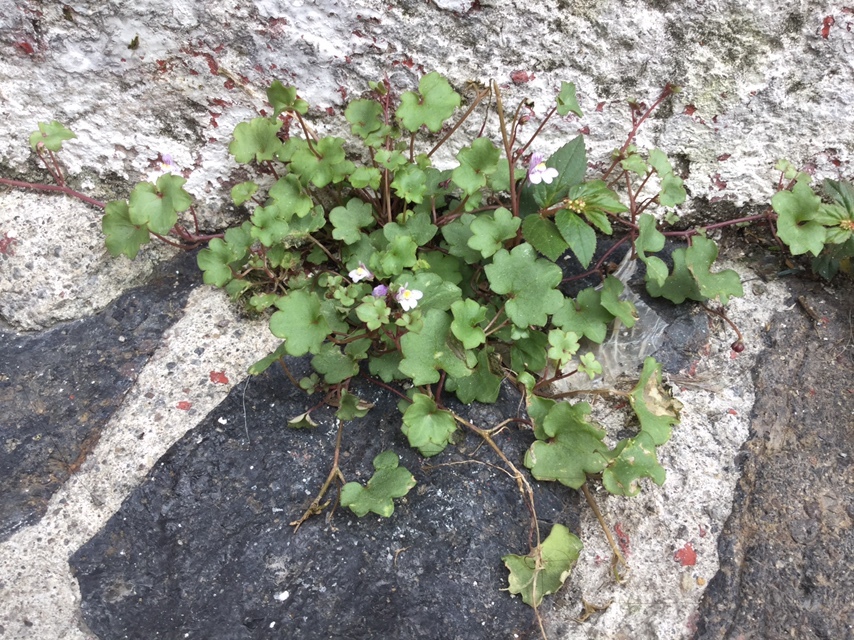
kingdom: Plantae
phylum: Tracheophyta
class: Magnoliopsida
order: Lamiales
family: Plantaginaceae
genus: Cymbalaria
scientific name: Cymbalaria muralis
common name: Ivy-leaved toadflax
